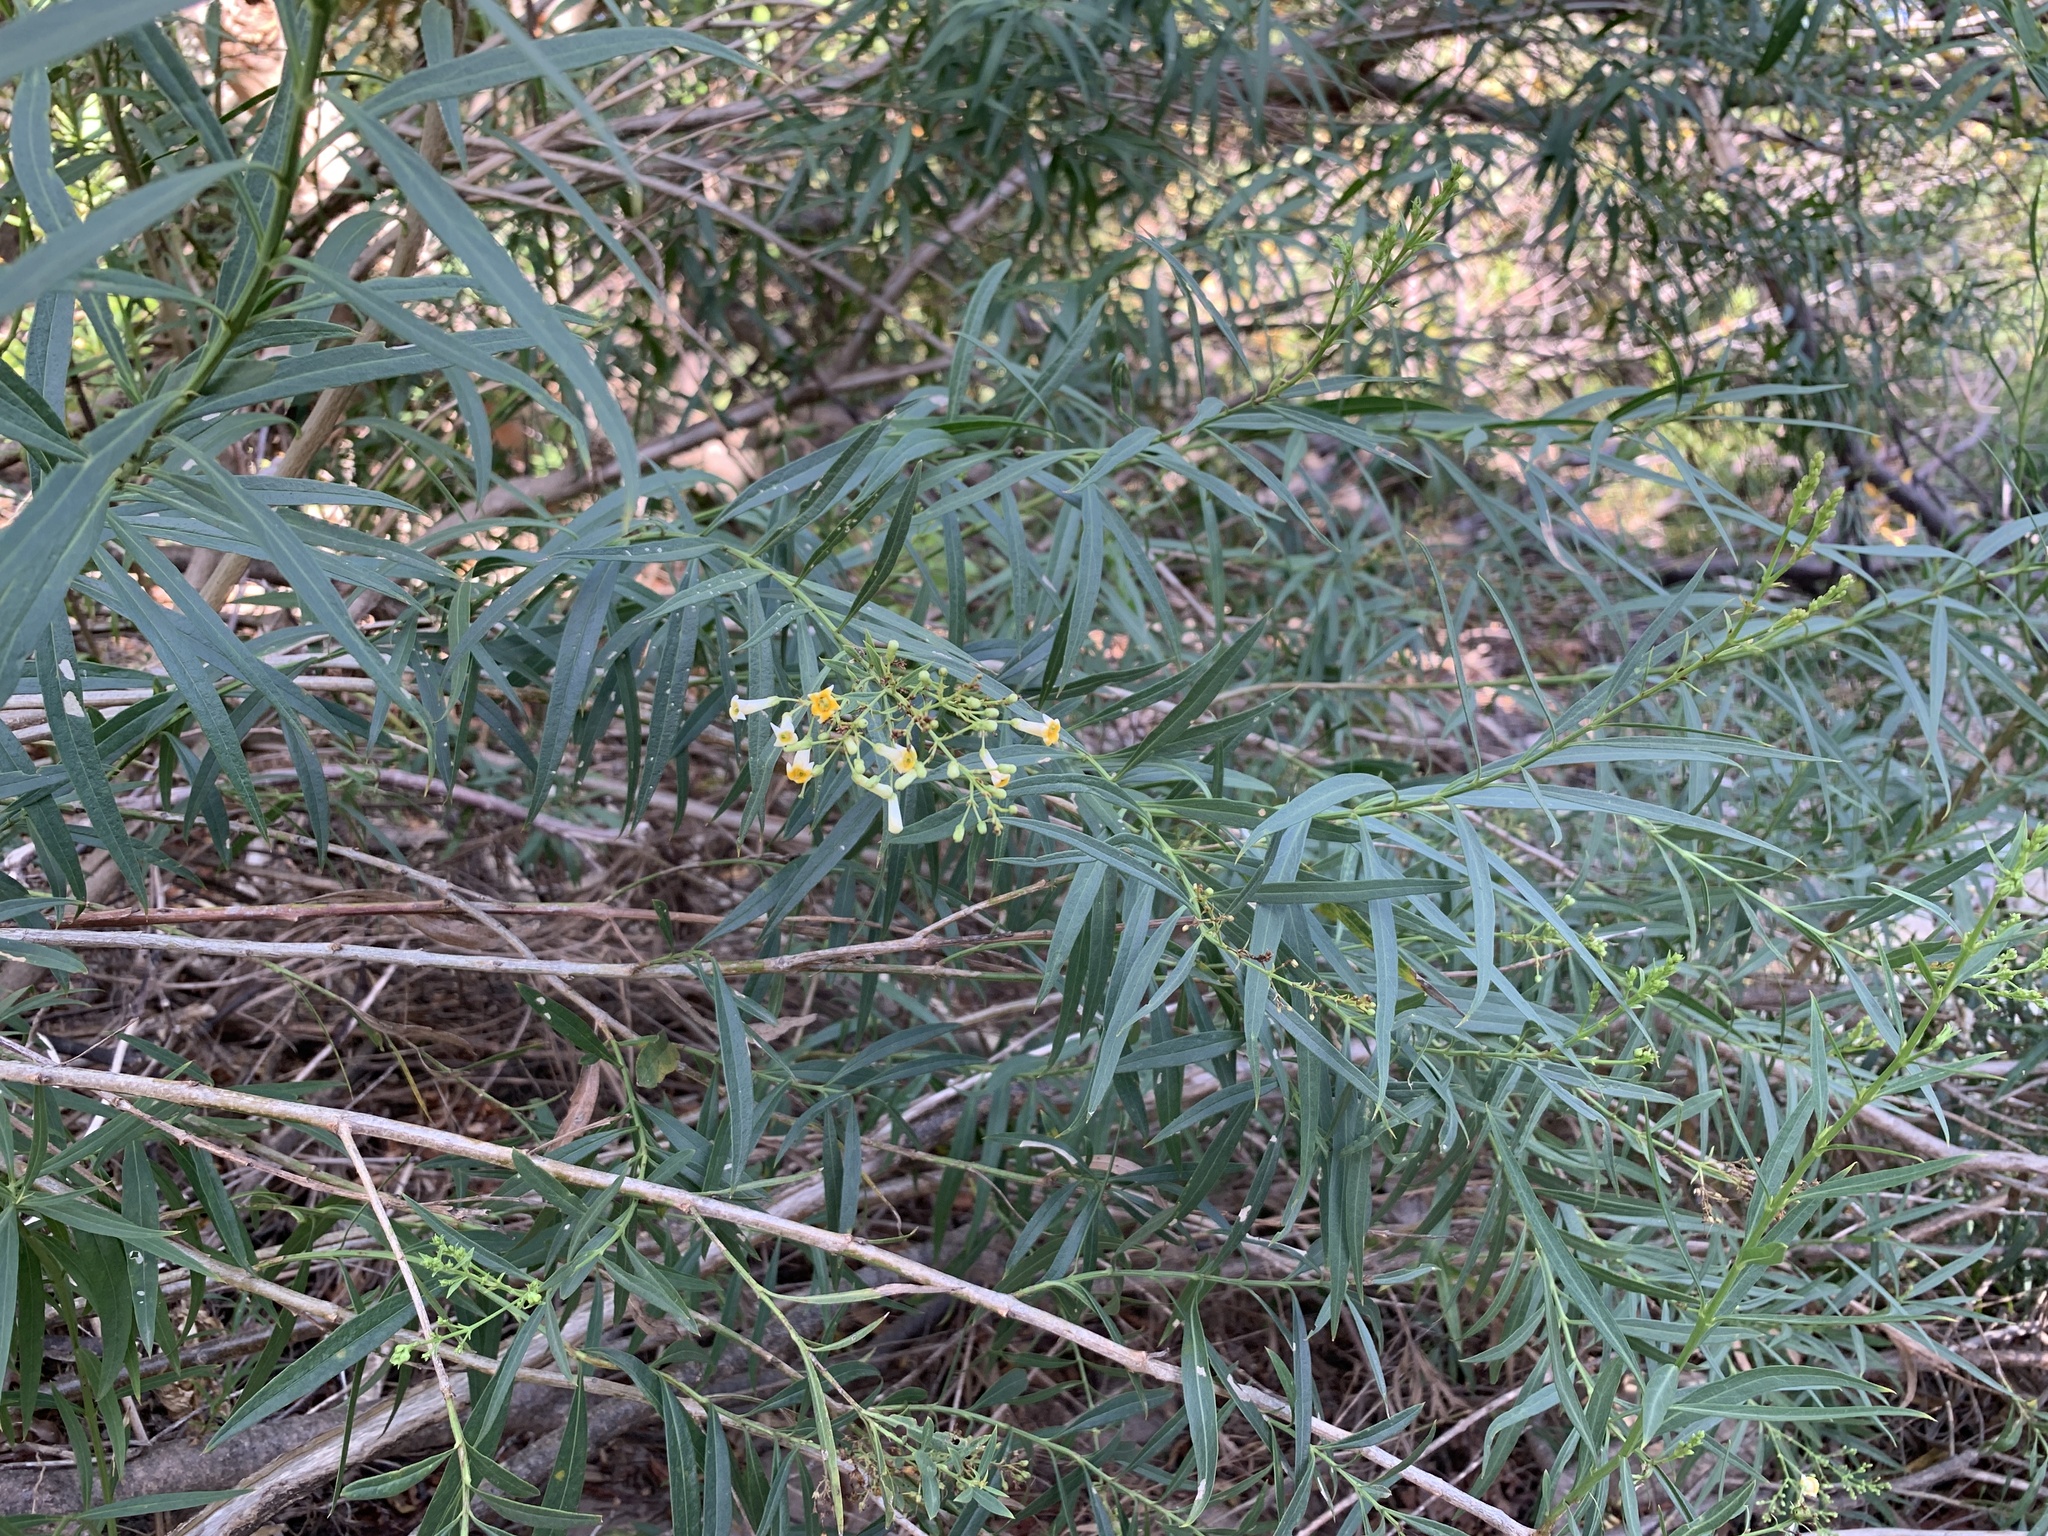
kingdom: Plantae
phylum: Tracheophyta
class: Magnoliopsida
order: Lamiales
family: Scrophulariaceae
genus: Freylinia
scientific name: Freylinia lanceolata
